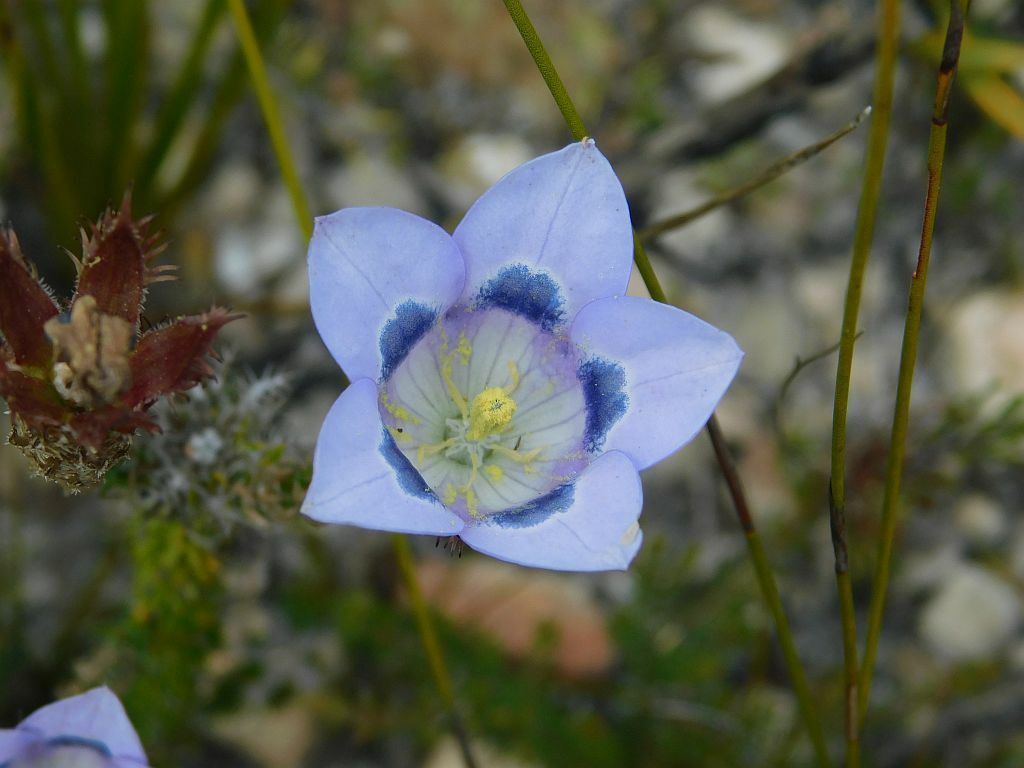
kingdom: Plantae
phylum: Tracheophyta
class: Magnoliopsida
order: Asterales
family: Campanulaceae
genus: Roella
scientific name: Roella incurva
